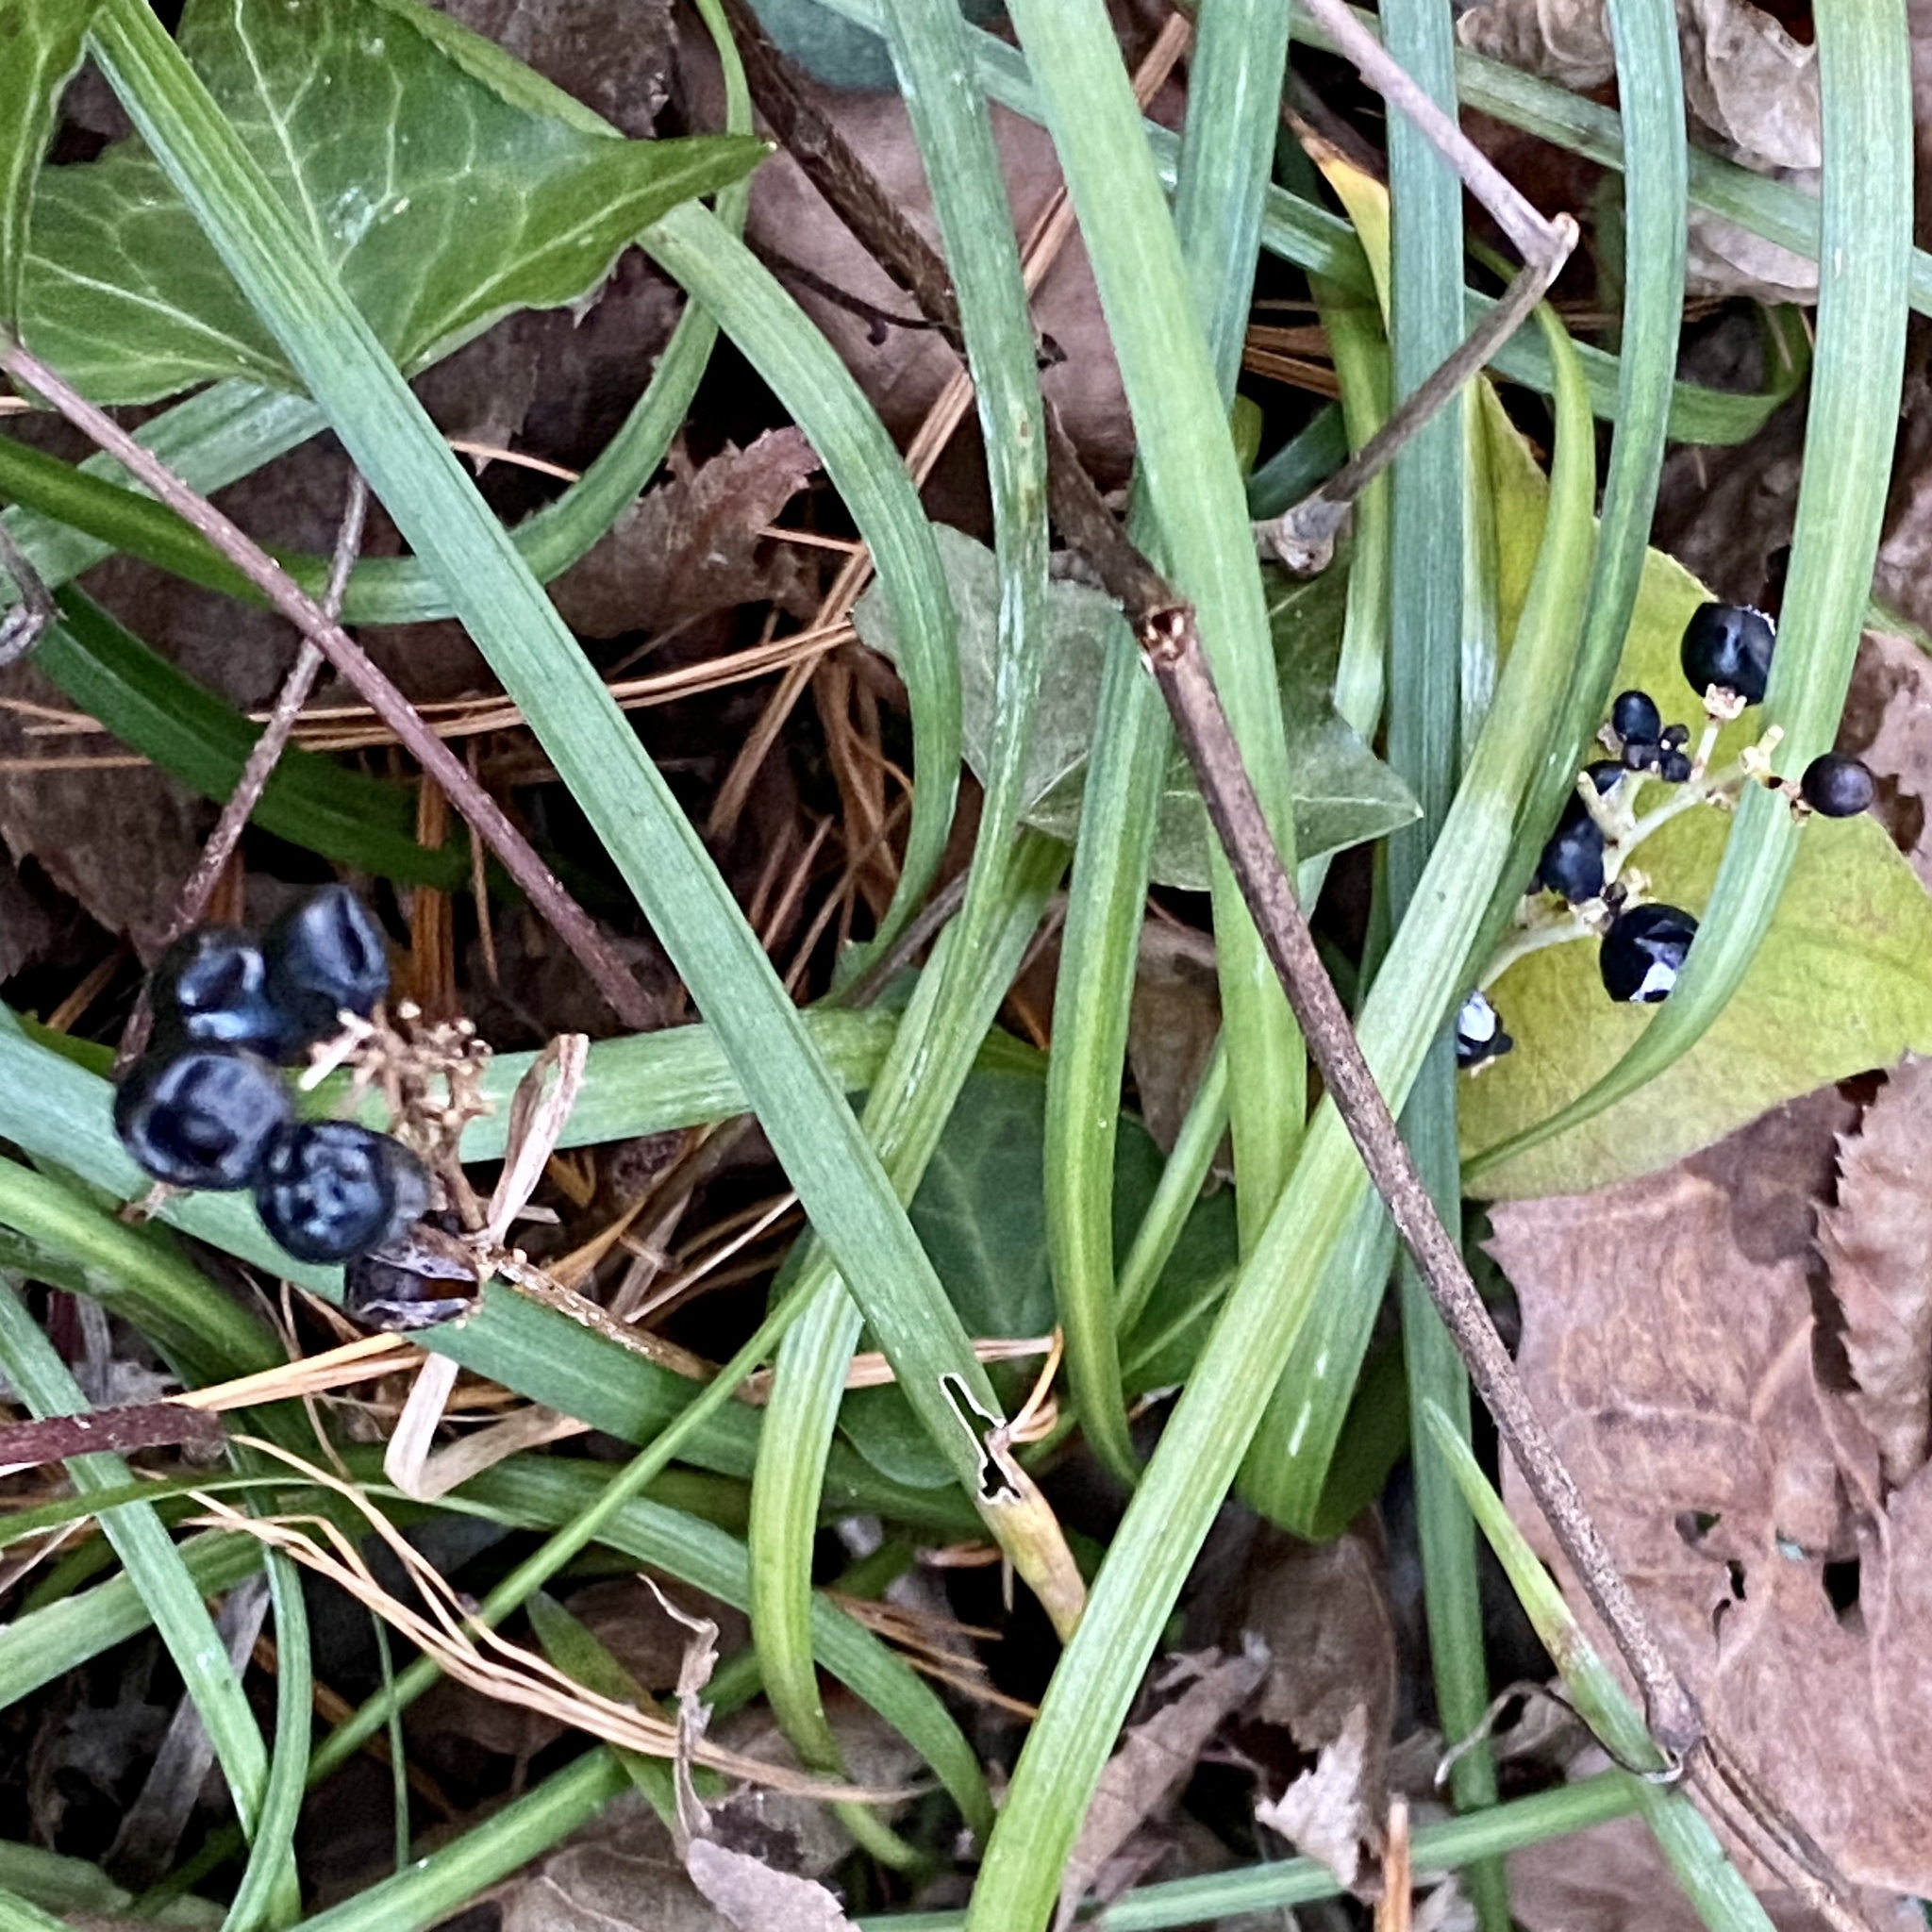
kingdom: Plantae
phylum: Tracheophyta
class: Liliopsida
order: Asparagales
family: Asparagaceae
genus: Liriope
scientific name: Liriope spicata
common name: Creeping liriope
